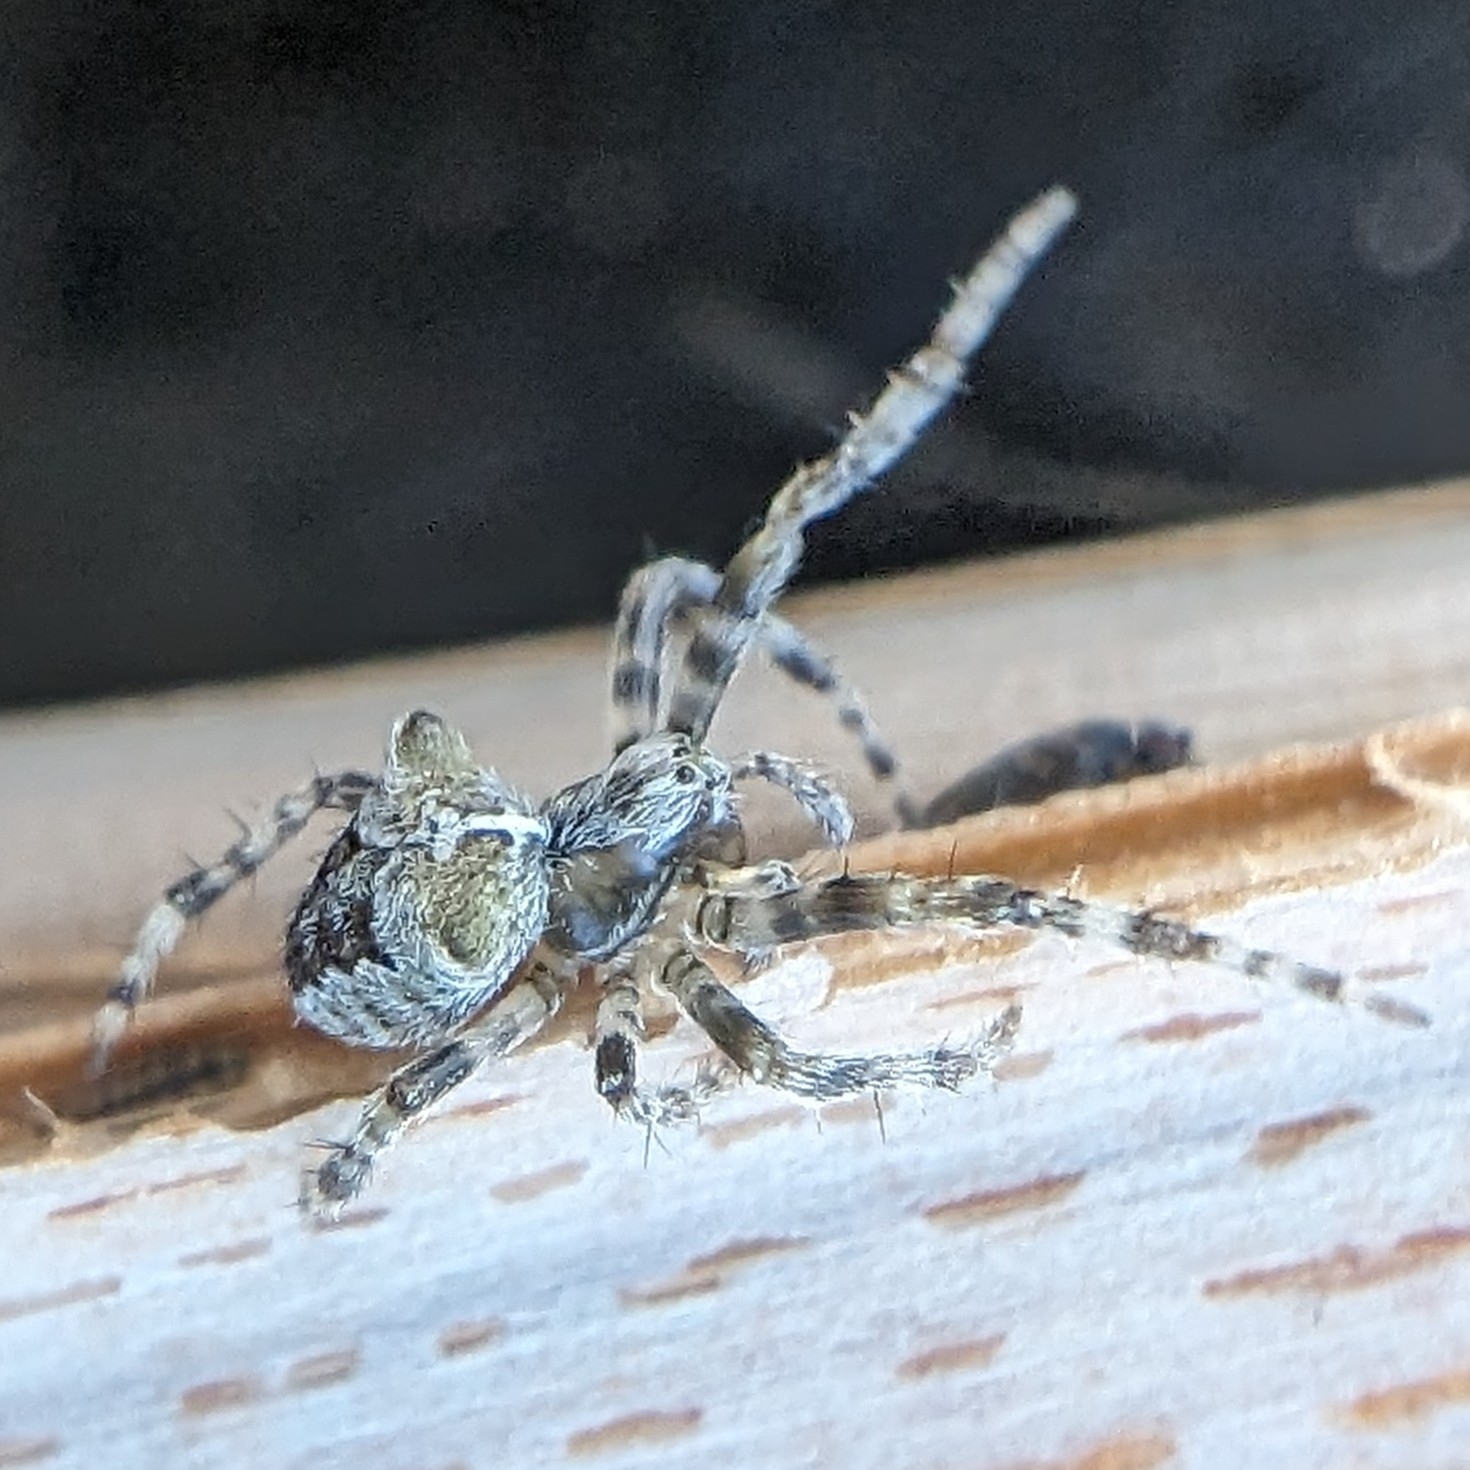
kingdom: Animalia
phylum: Arthropoda
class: Arachnida
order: Araneae
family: Araneidae
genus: Araneus
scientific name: Araneus gemmoides
